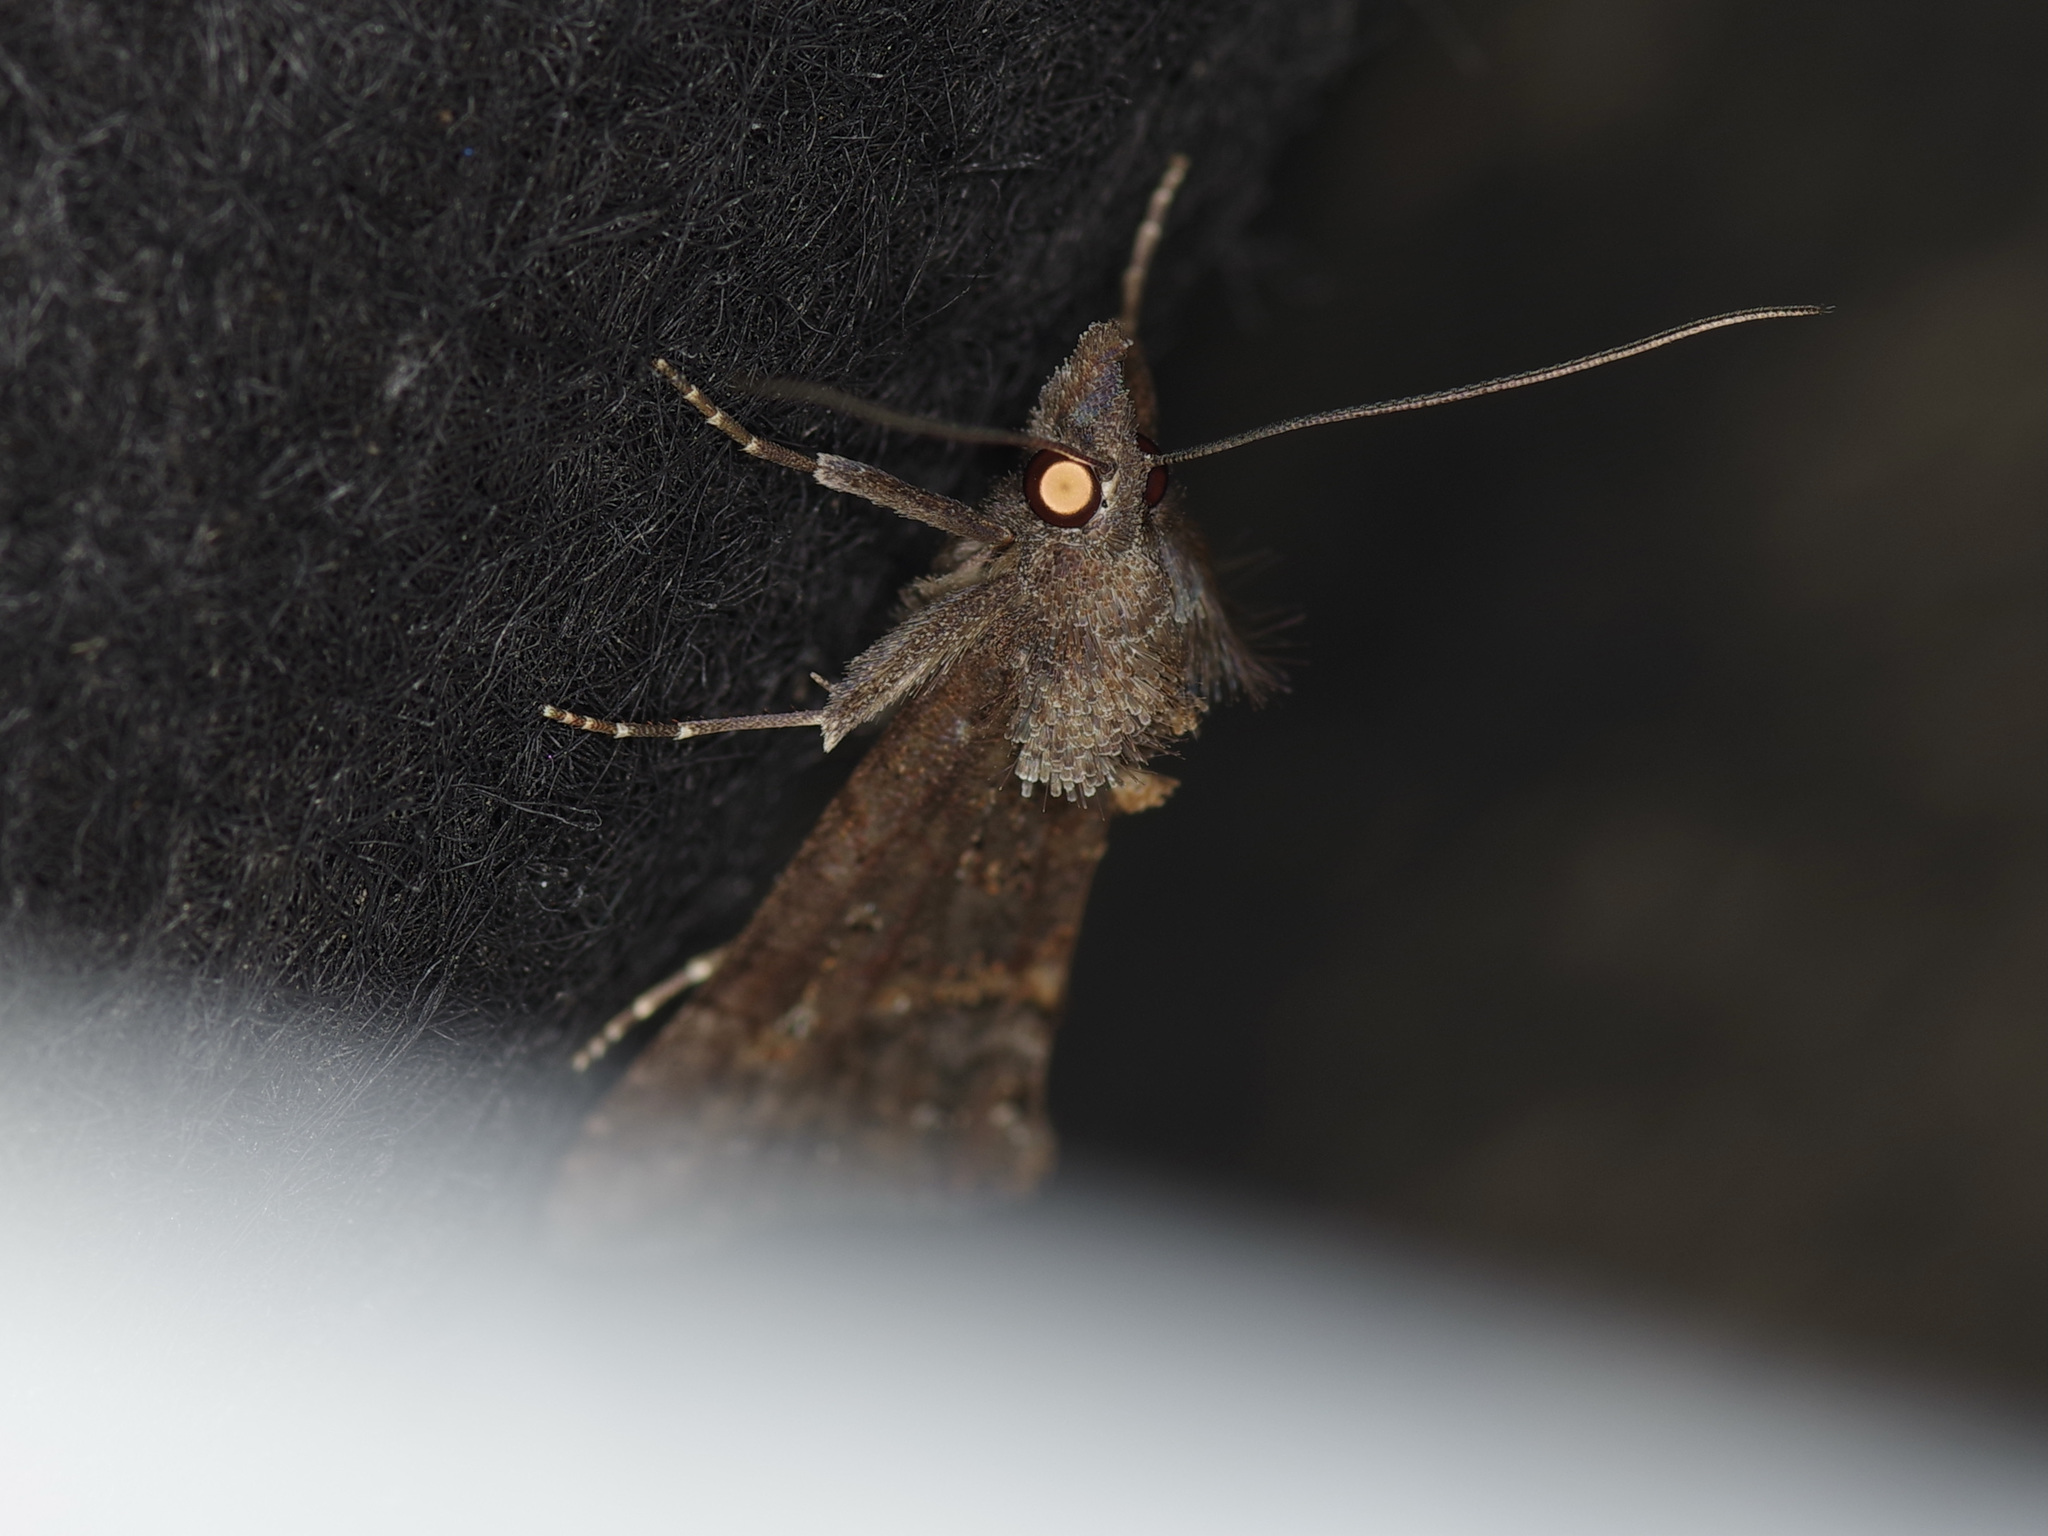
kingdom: Animalia
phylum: Arthropoda
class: Insecta
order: Lepidoptera
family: Erebidae
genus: Hypena
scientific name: Hypena scabra
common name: Green cloverworm
